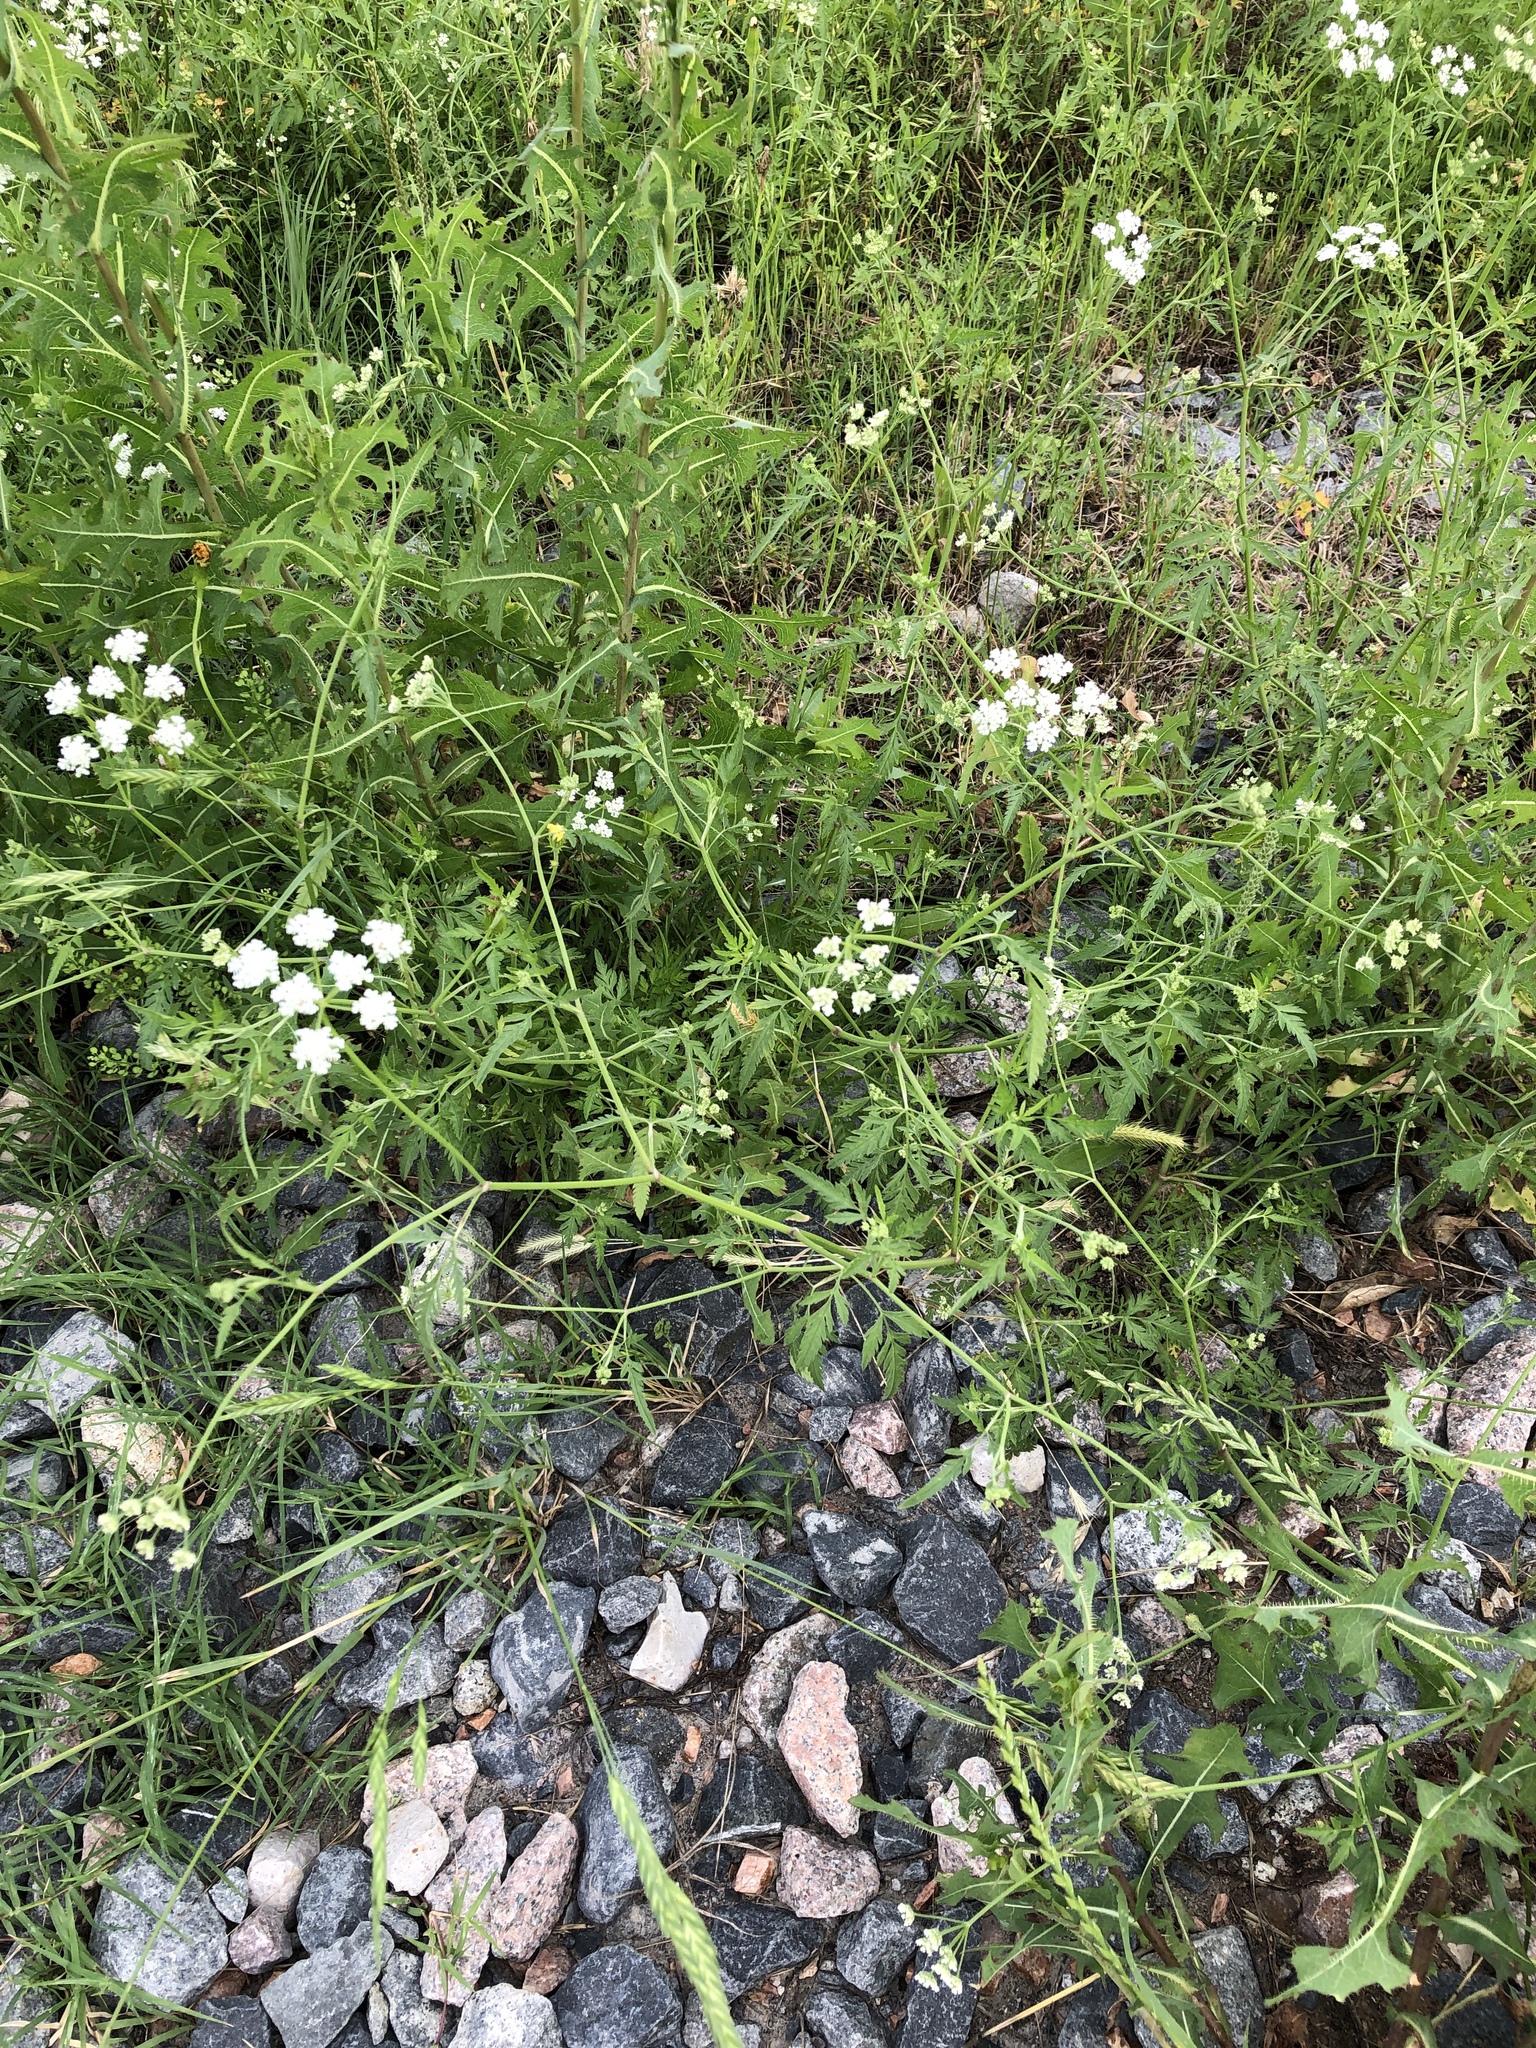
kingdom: Plantae
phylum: Tracheophyta
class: Magnoliopsida
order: Apiales
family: Apiaceae
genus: Torilis
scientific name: Torilis arvensis
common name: Spreading hedge-parsley
